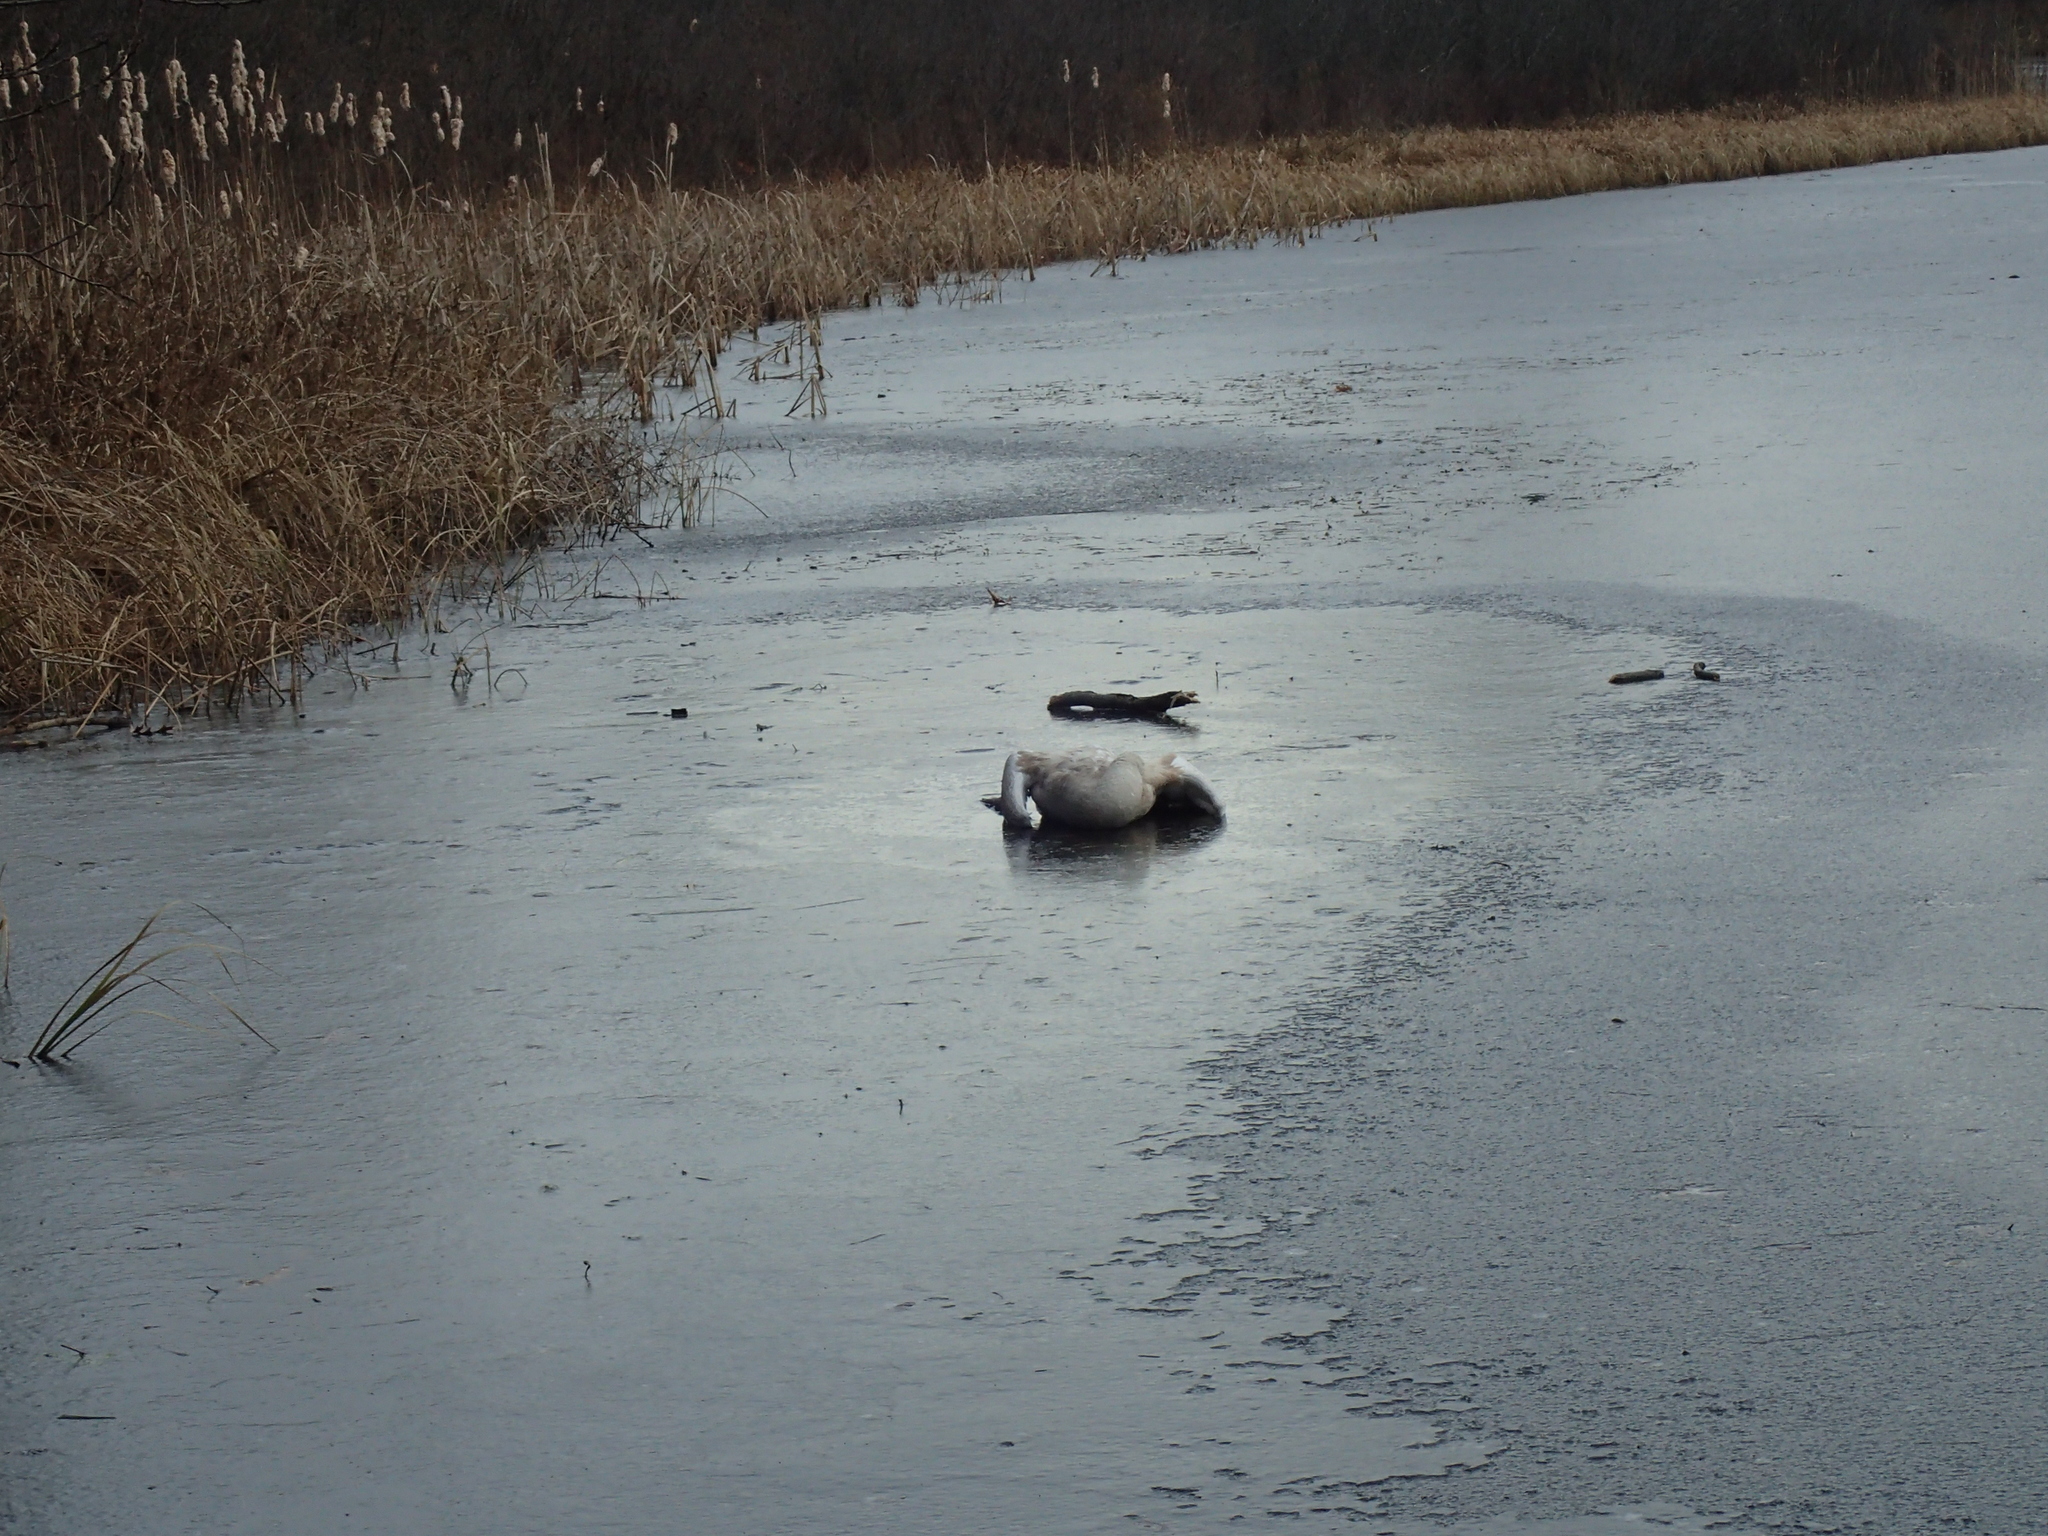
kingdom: Animalia
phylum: Chordata
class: Aves
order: Anseriformes
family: Anatidae
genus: Cygnus
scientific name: Cygnus olor
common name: Mute swan
